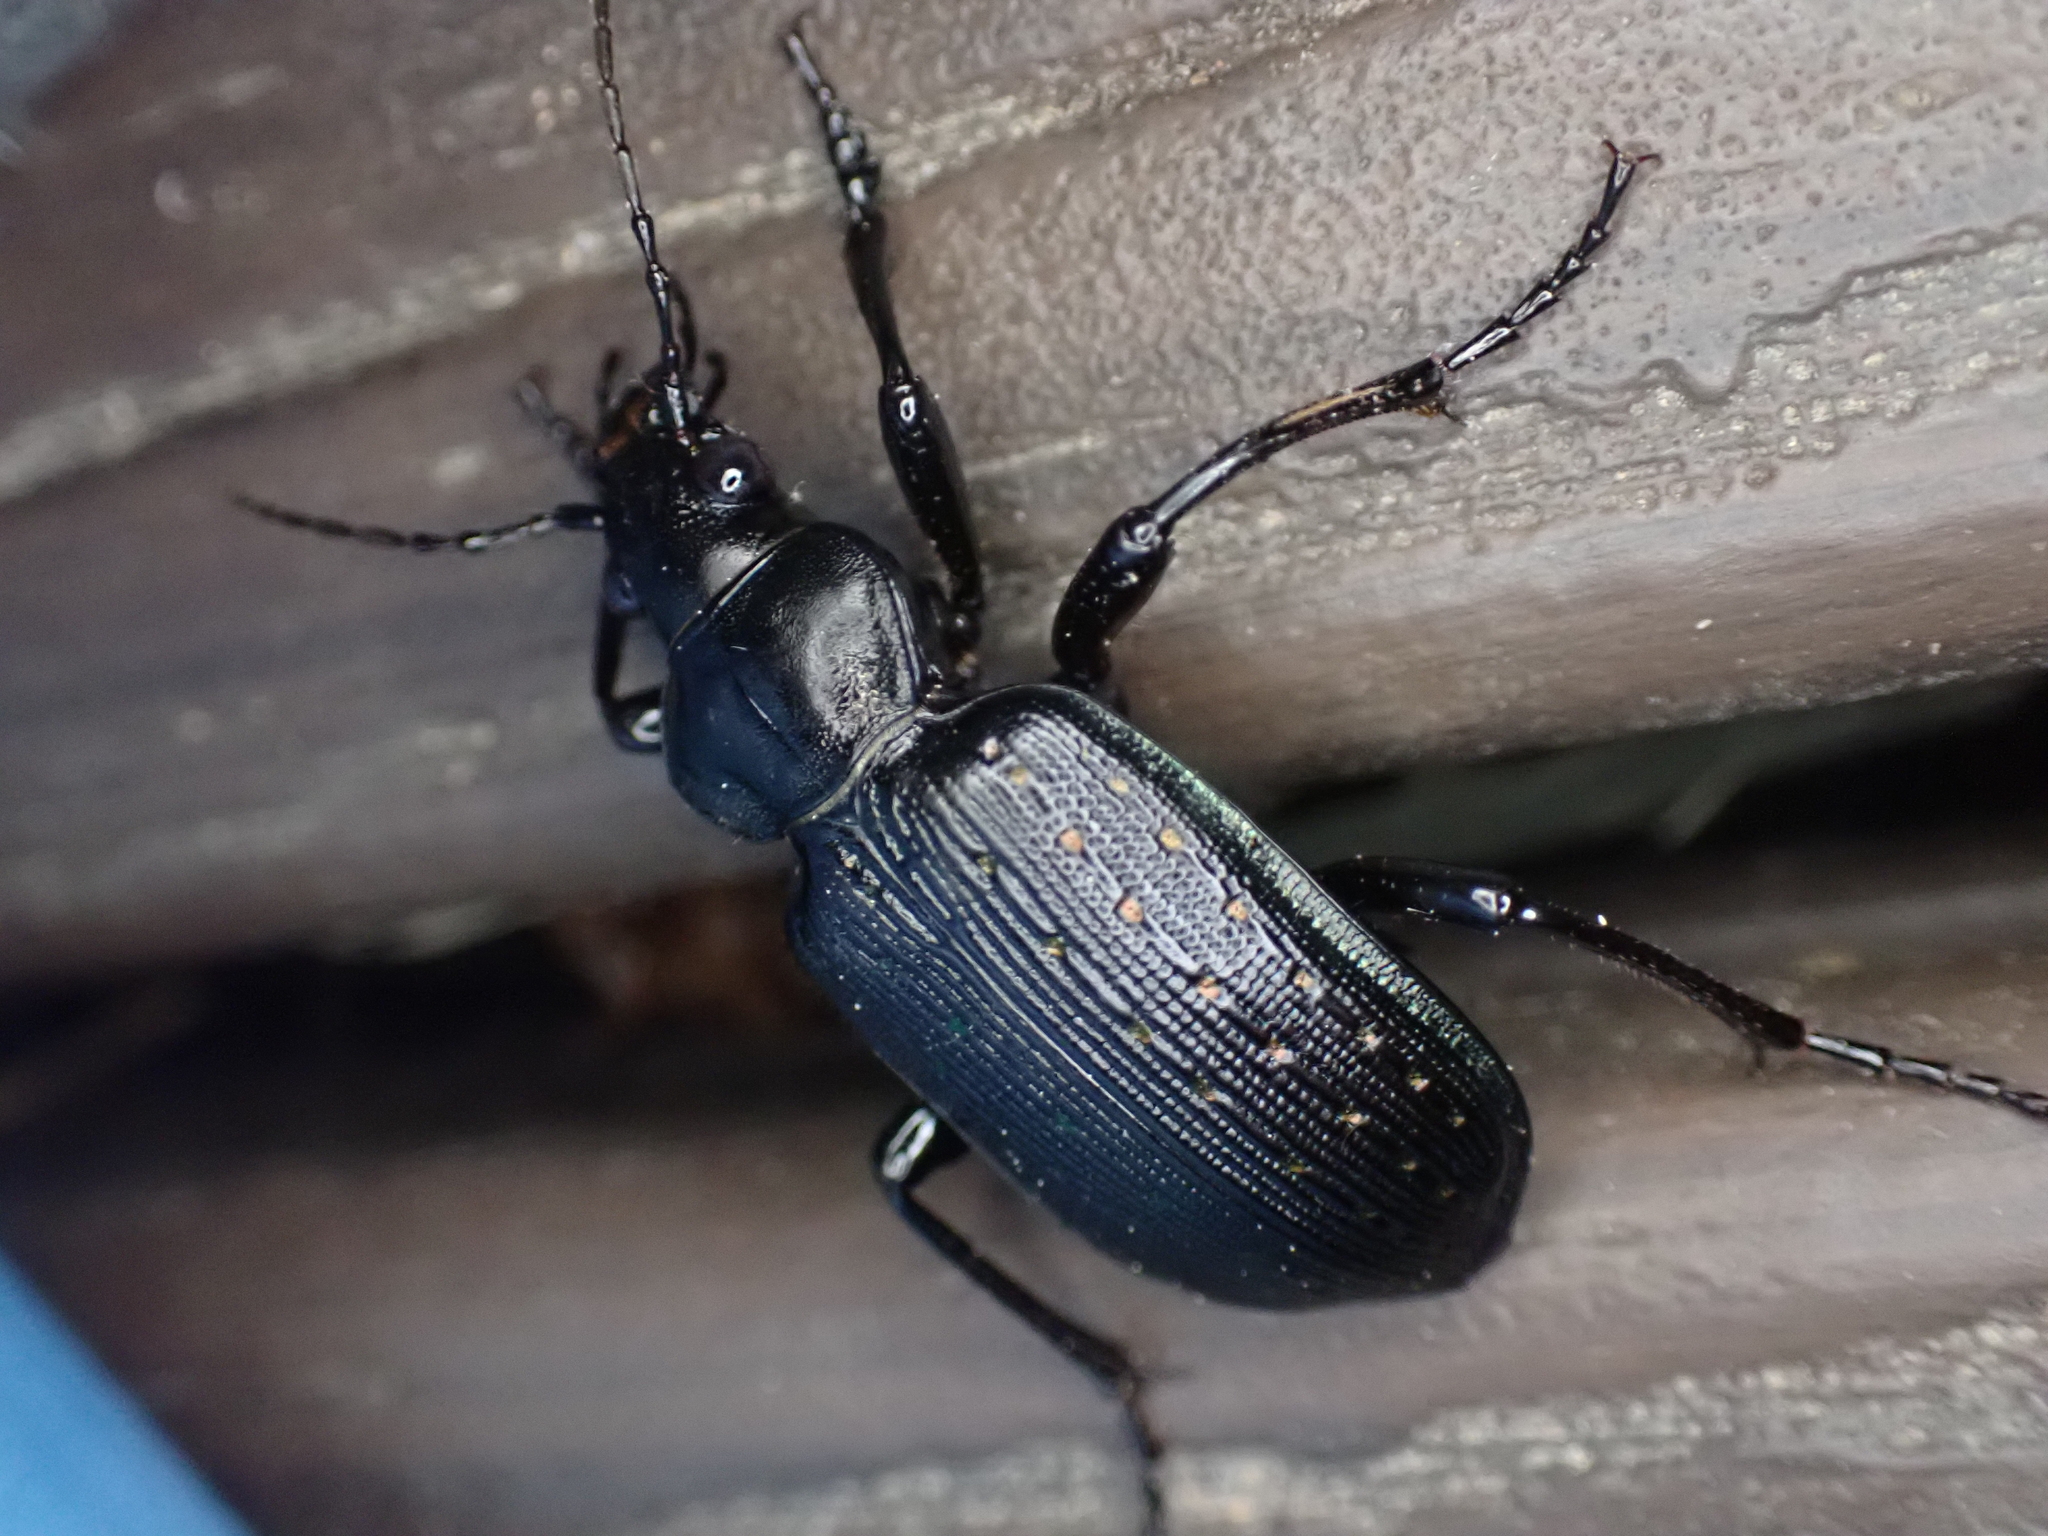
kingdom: Animalia
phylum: Arthropoda
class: Insecta
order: Coleoptera
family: Carabidae
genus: Calosoma
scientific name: Calosoma sayi
